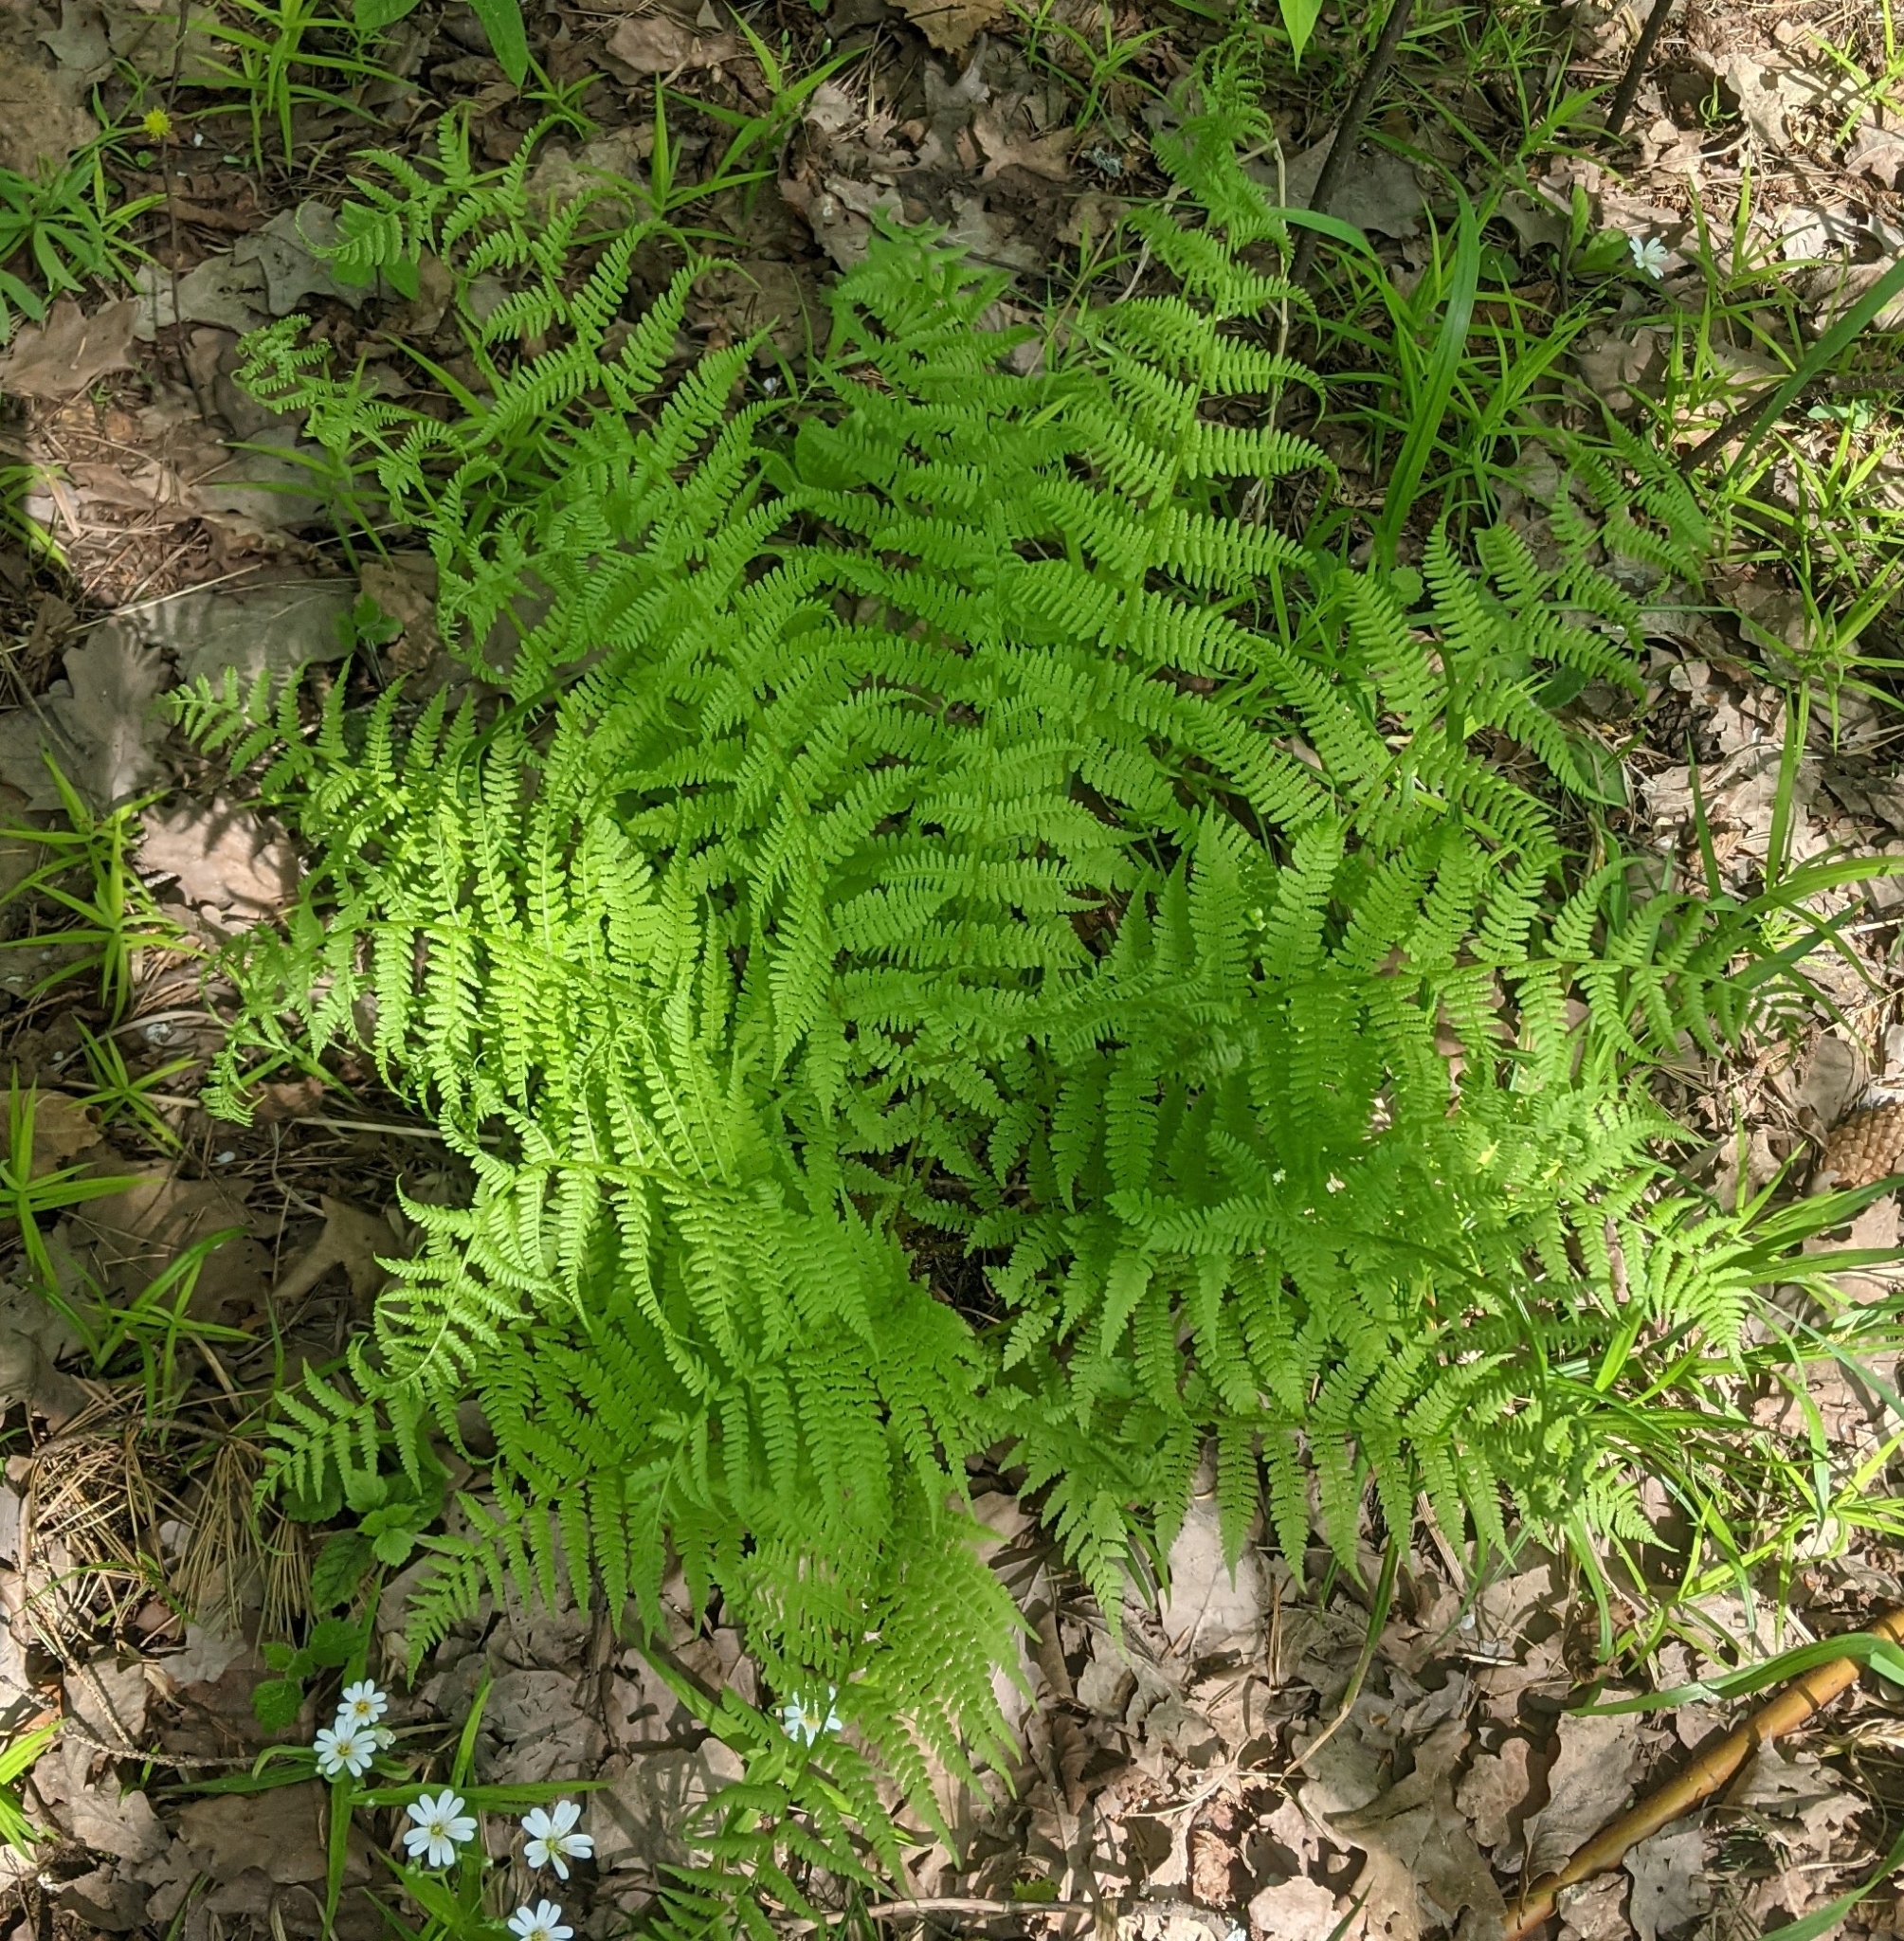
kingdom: Plantae
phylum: Tracheophyta
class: Polypodiopsida
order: Polypodiales
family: Athyriaceae
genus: Athyrium
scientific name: Athyrium filix-femina
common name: Lady fern
